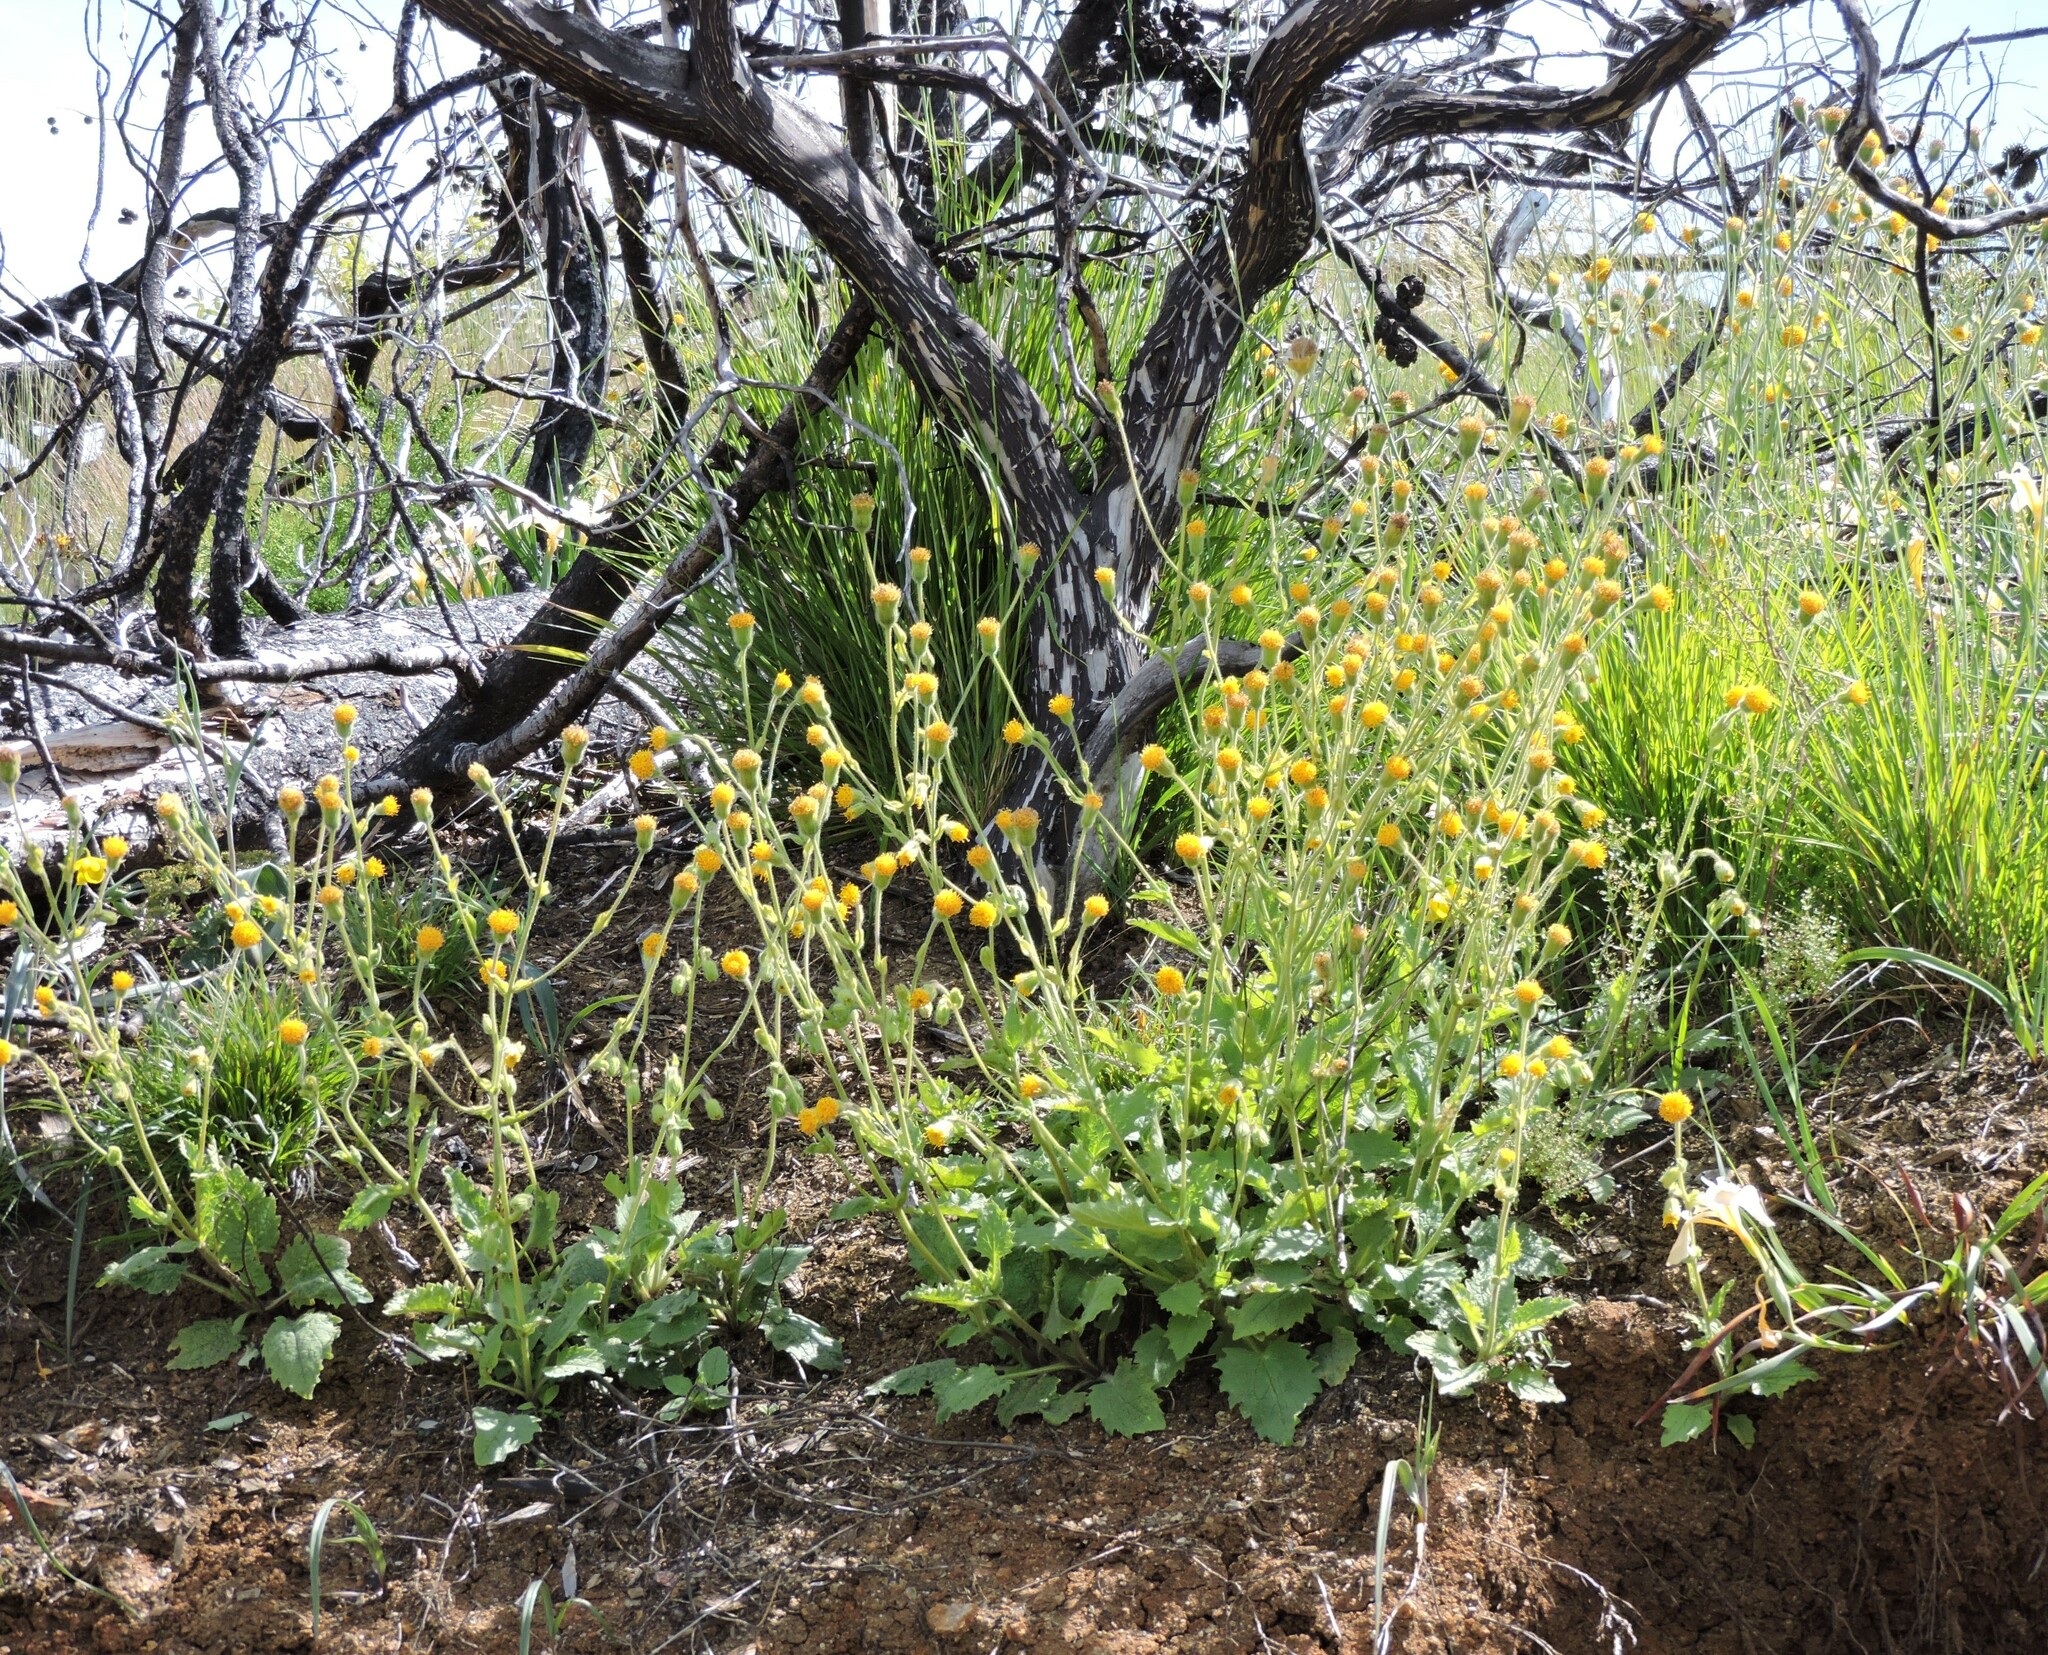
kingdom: Plantae
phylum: Tracheophyta
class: Magnoliopsida
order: Asterales
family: Asteraceae
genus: Arnica
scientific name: Arnica discoidea
